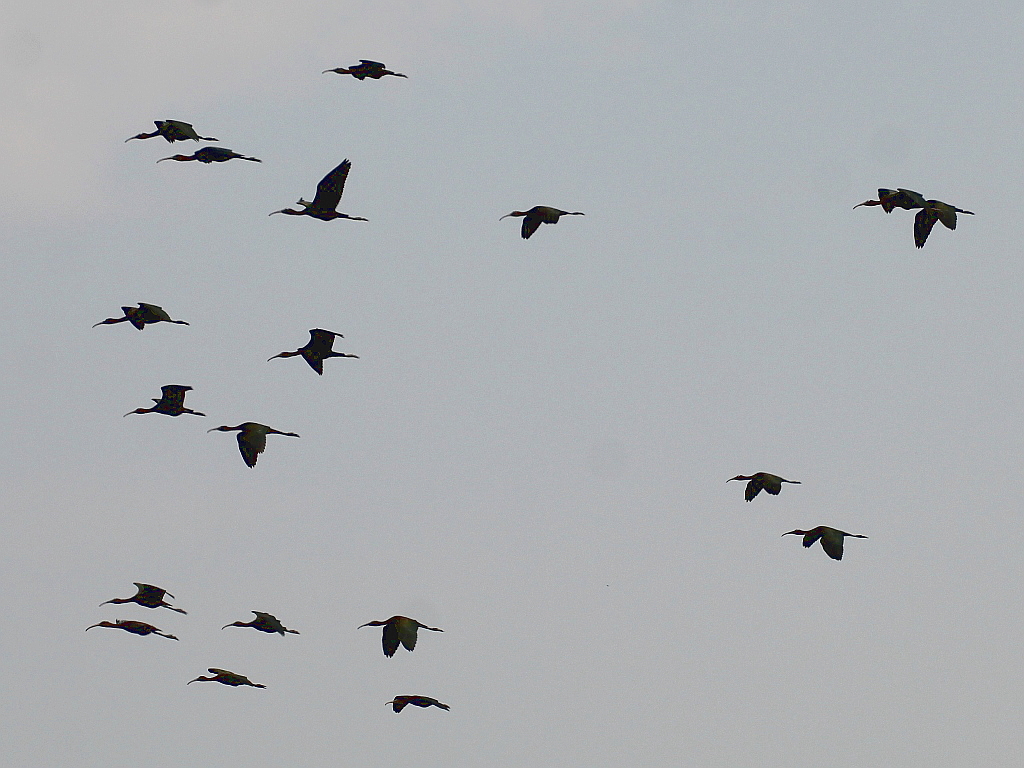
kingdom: Animalia
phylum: Chordata
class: Aves
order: Pelecaniformes
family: Threskiornithidae
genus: Plegadis
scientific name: Plegadis falcinellus
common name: Glossy ibis
